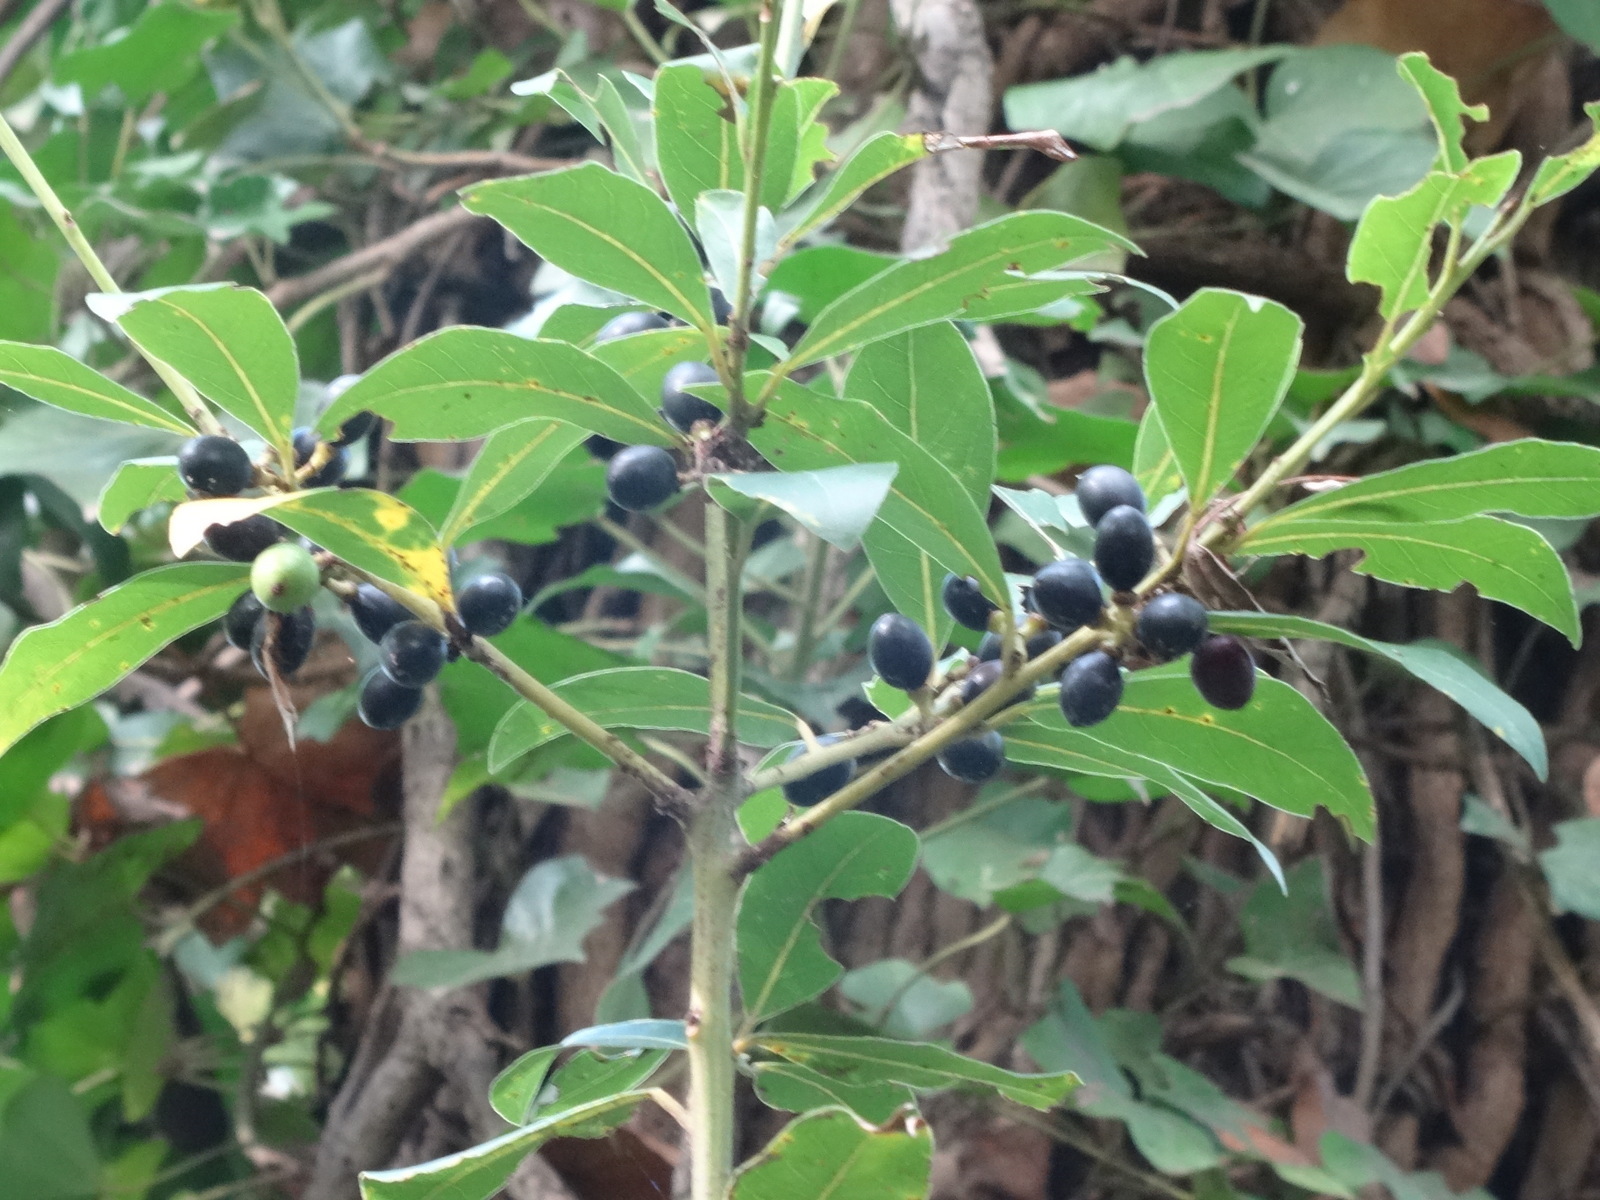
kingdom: Plantae
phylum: Tracheophyta
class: Magnoliopsida
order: Laurales
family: Lauraceae
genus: Laurus
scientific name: Laurus nobilis
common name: Bay
